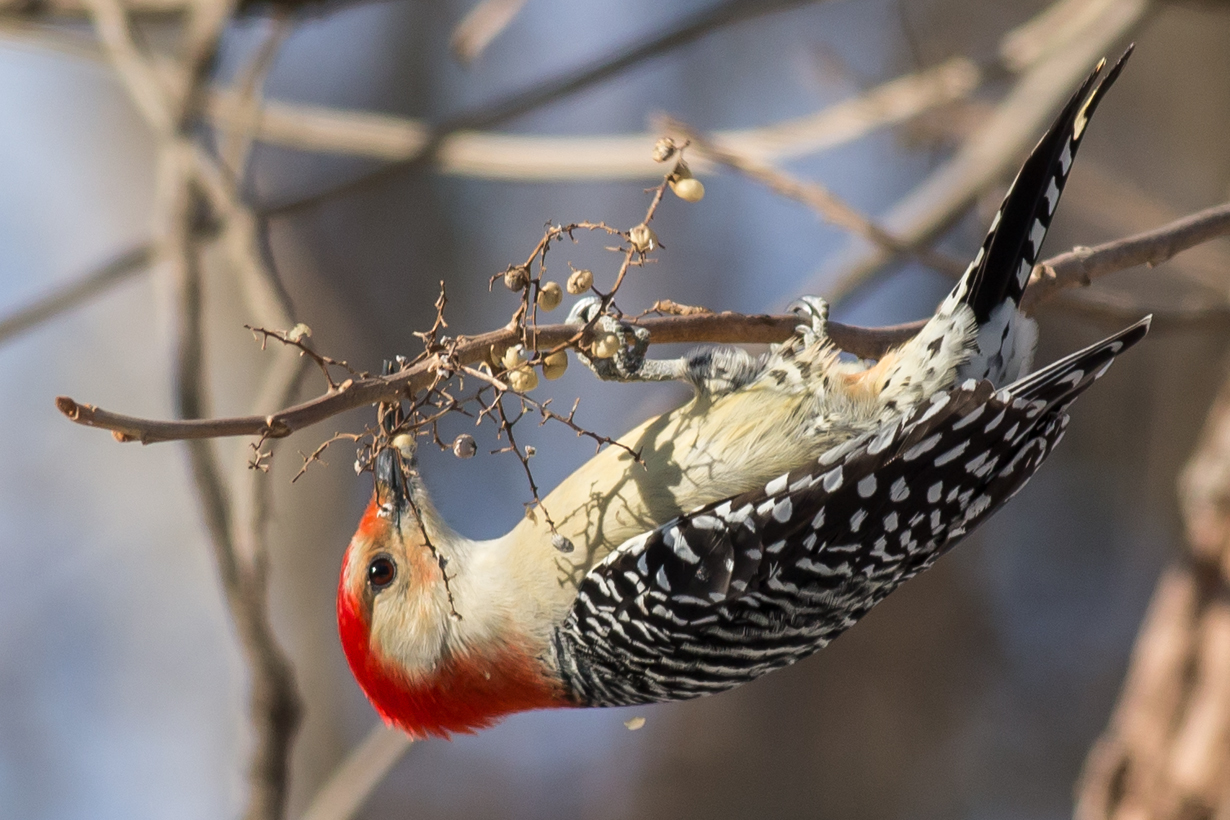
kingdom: Animalia
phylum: Chordata
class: Aves
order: Piciformes
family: Picidae
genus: Melanerpes
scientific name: Melanerpes carolinus
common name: Red-bellied woodpecker
